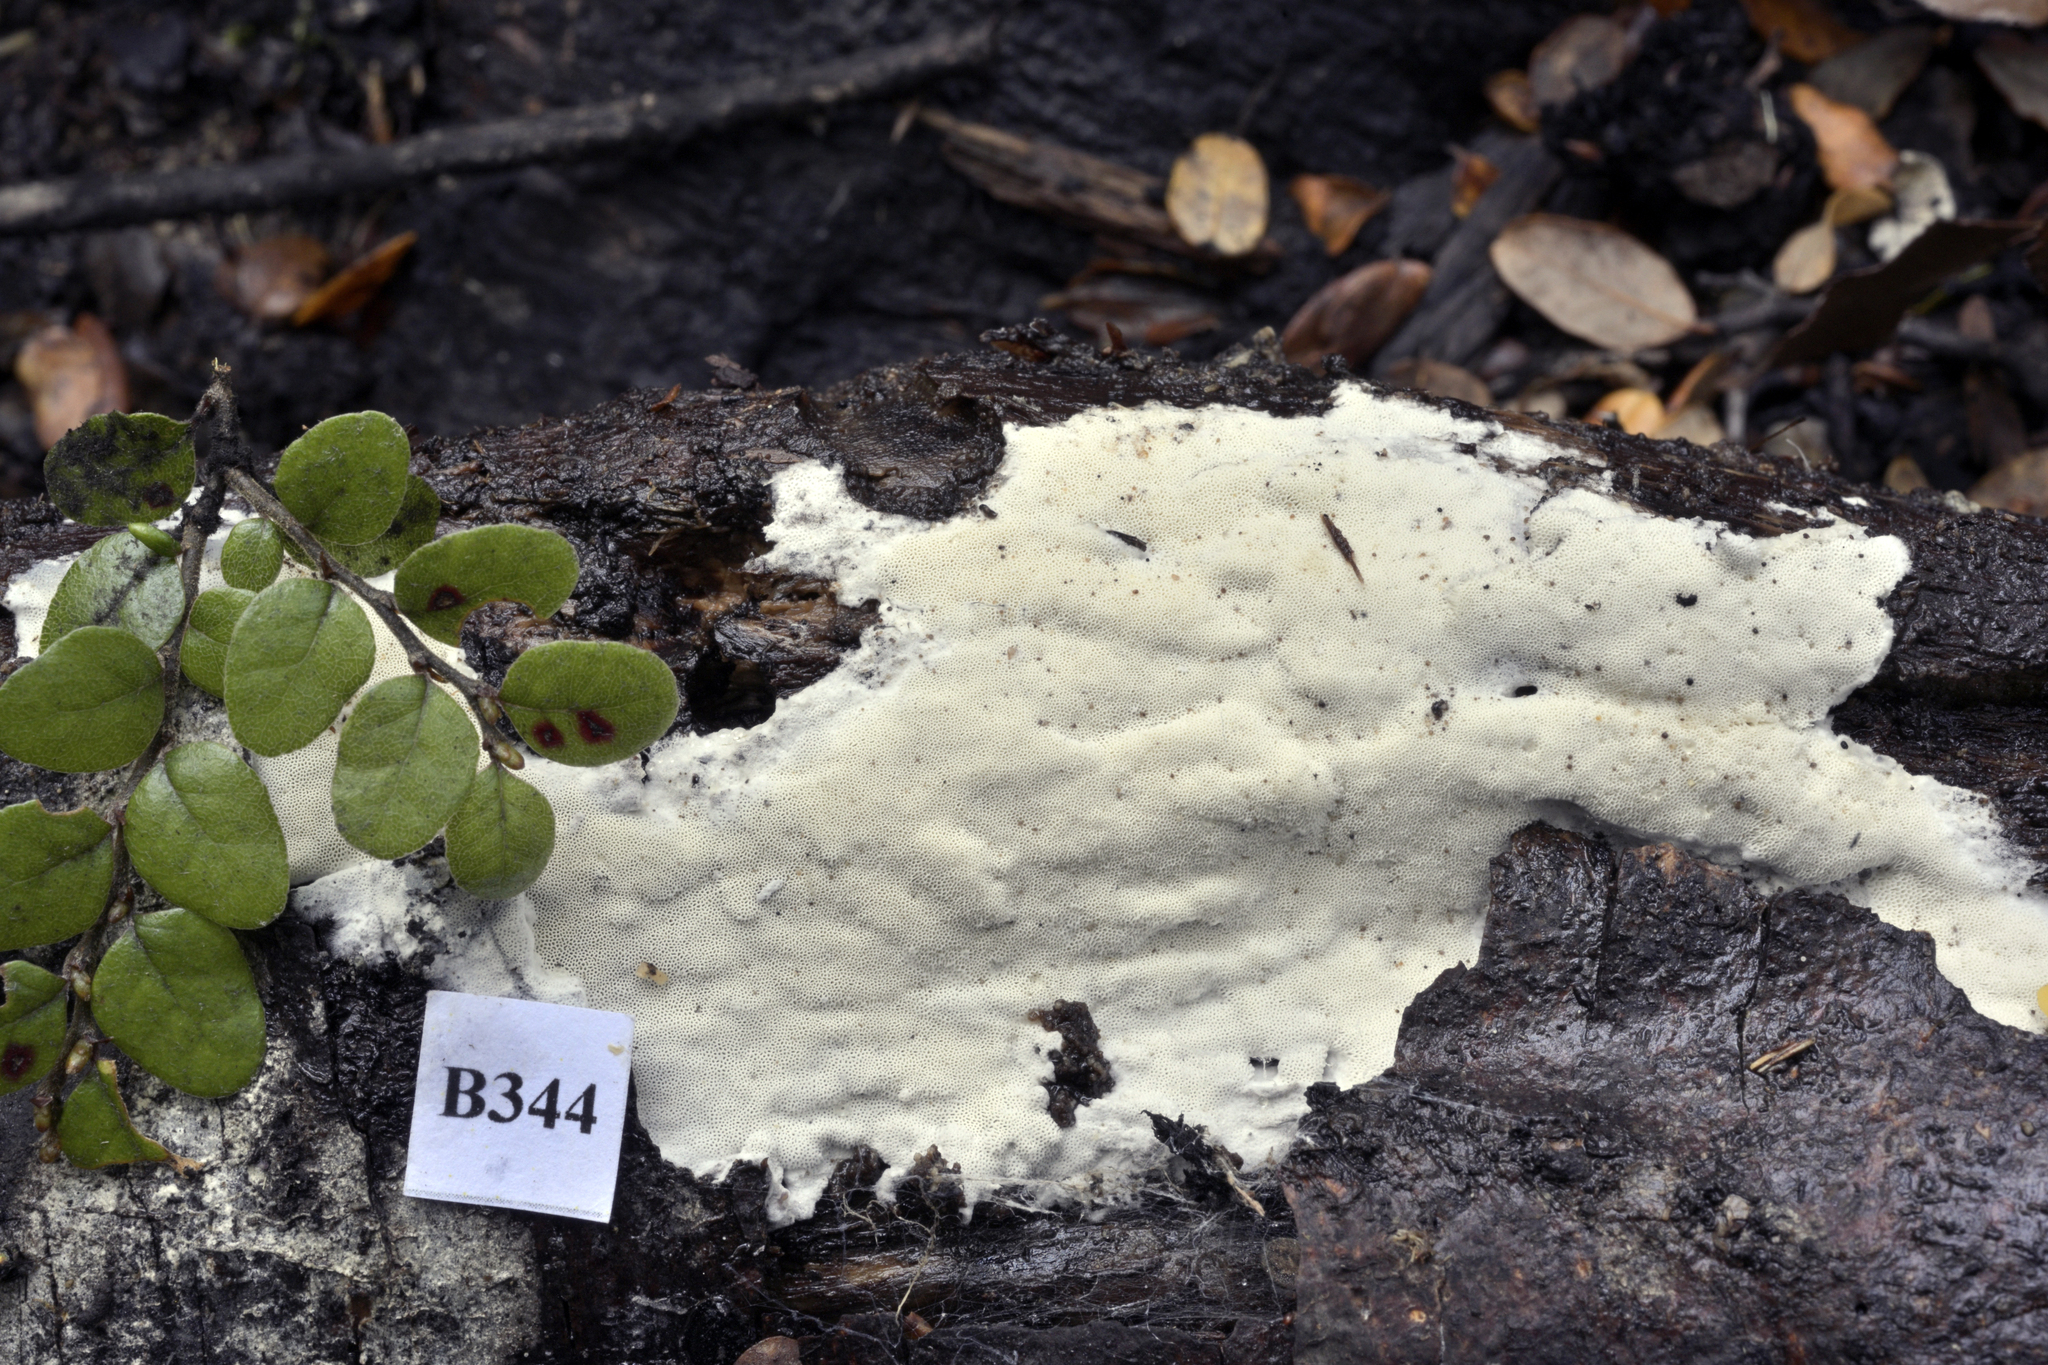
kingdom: Fungi
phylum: Basidiomycota
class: Agaricomycetes
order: Polyporales
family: Incrustoporiaceae
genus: Skeletocutis
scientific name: Skeletocutis alutacea
